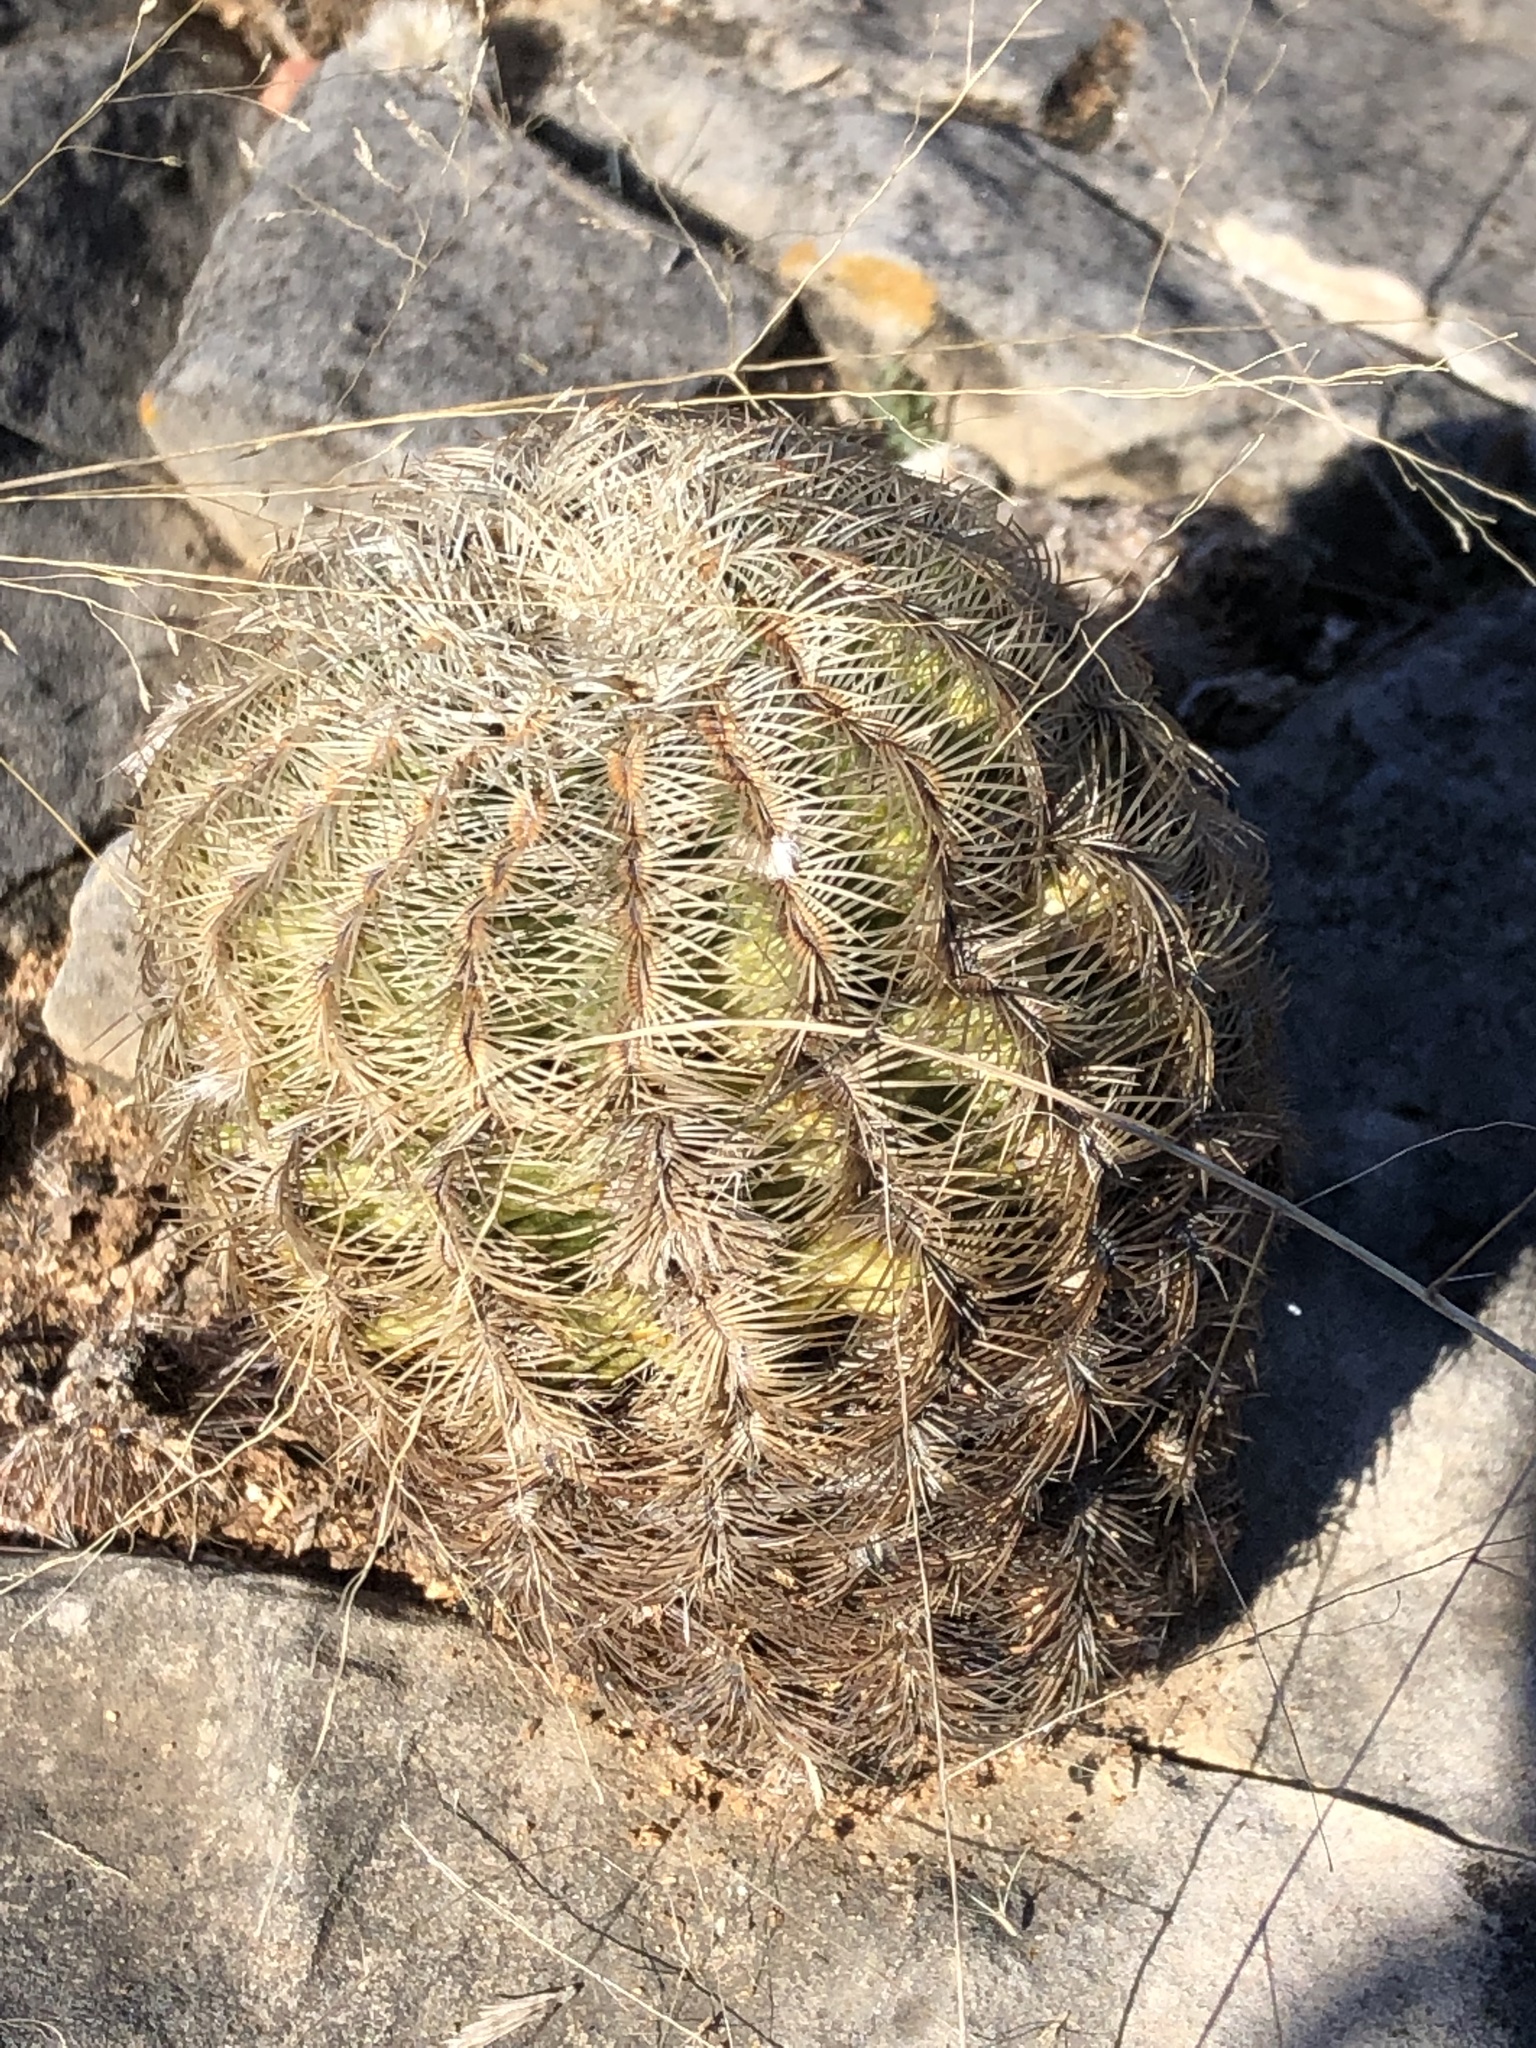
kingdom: Plantae
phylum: Tracheophyta
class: Magnoliopsida
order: Caryophyllales
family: Cactaceae
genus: Echinocereus
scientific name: Echinocereus reichenbachii
